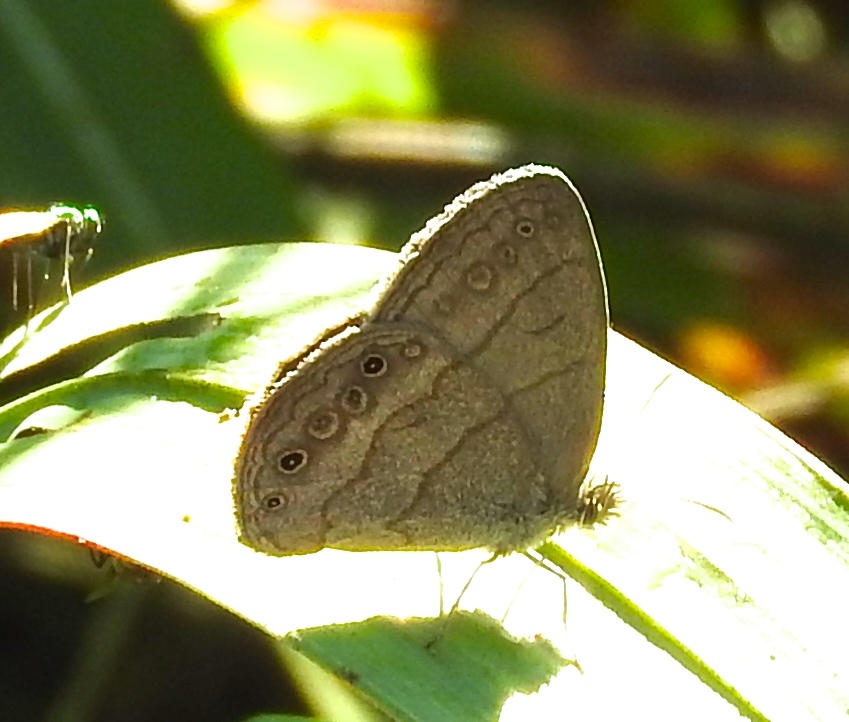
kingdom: Animalia
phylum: Arthropoda
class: Insecta
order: Lepidoptera
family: Nymphalidae
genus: Hermeuptychia
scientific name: Hermeuptychia hermes
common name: Hermes satyr
